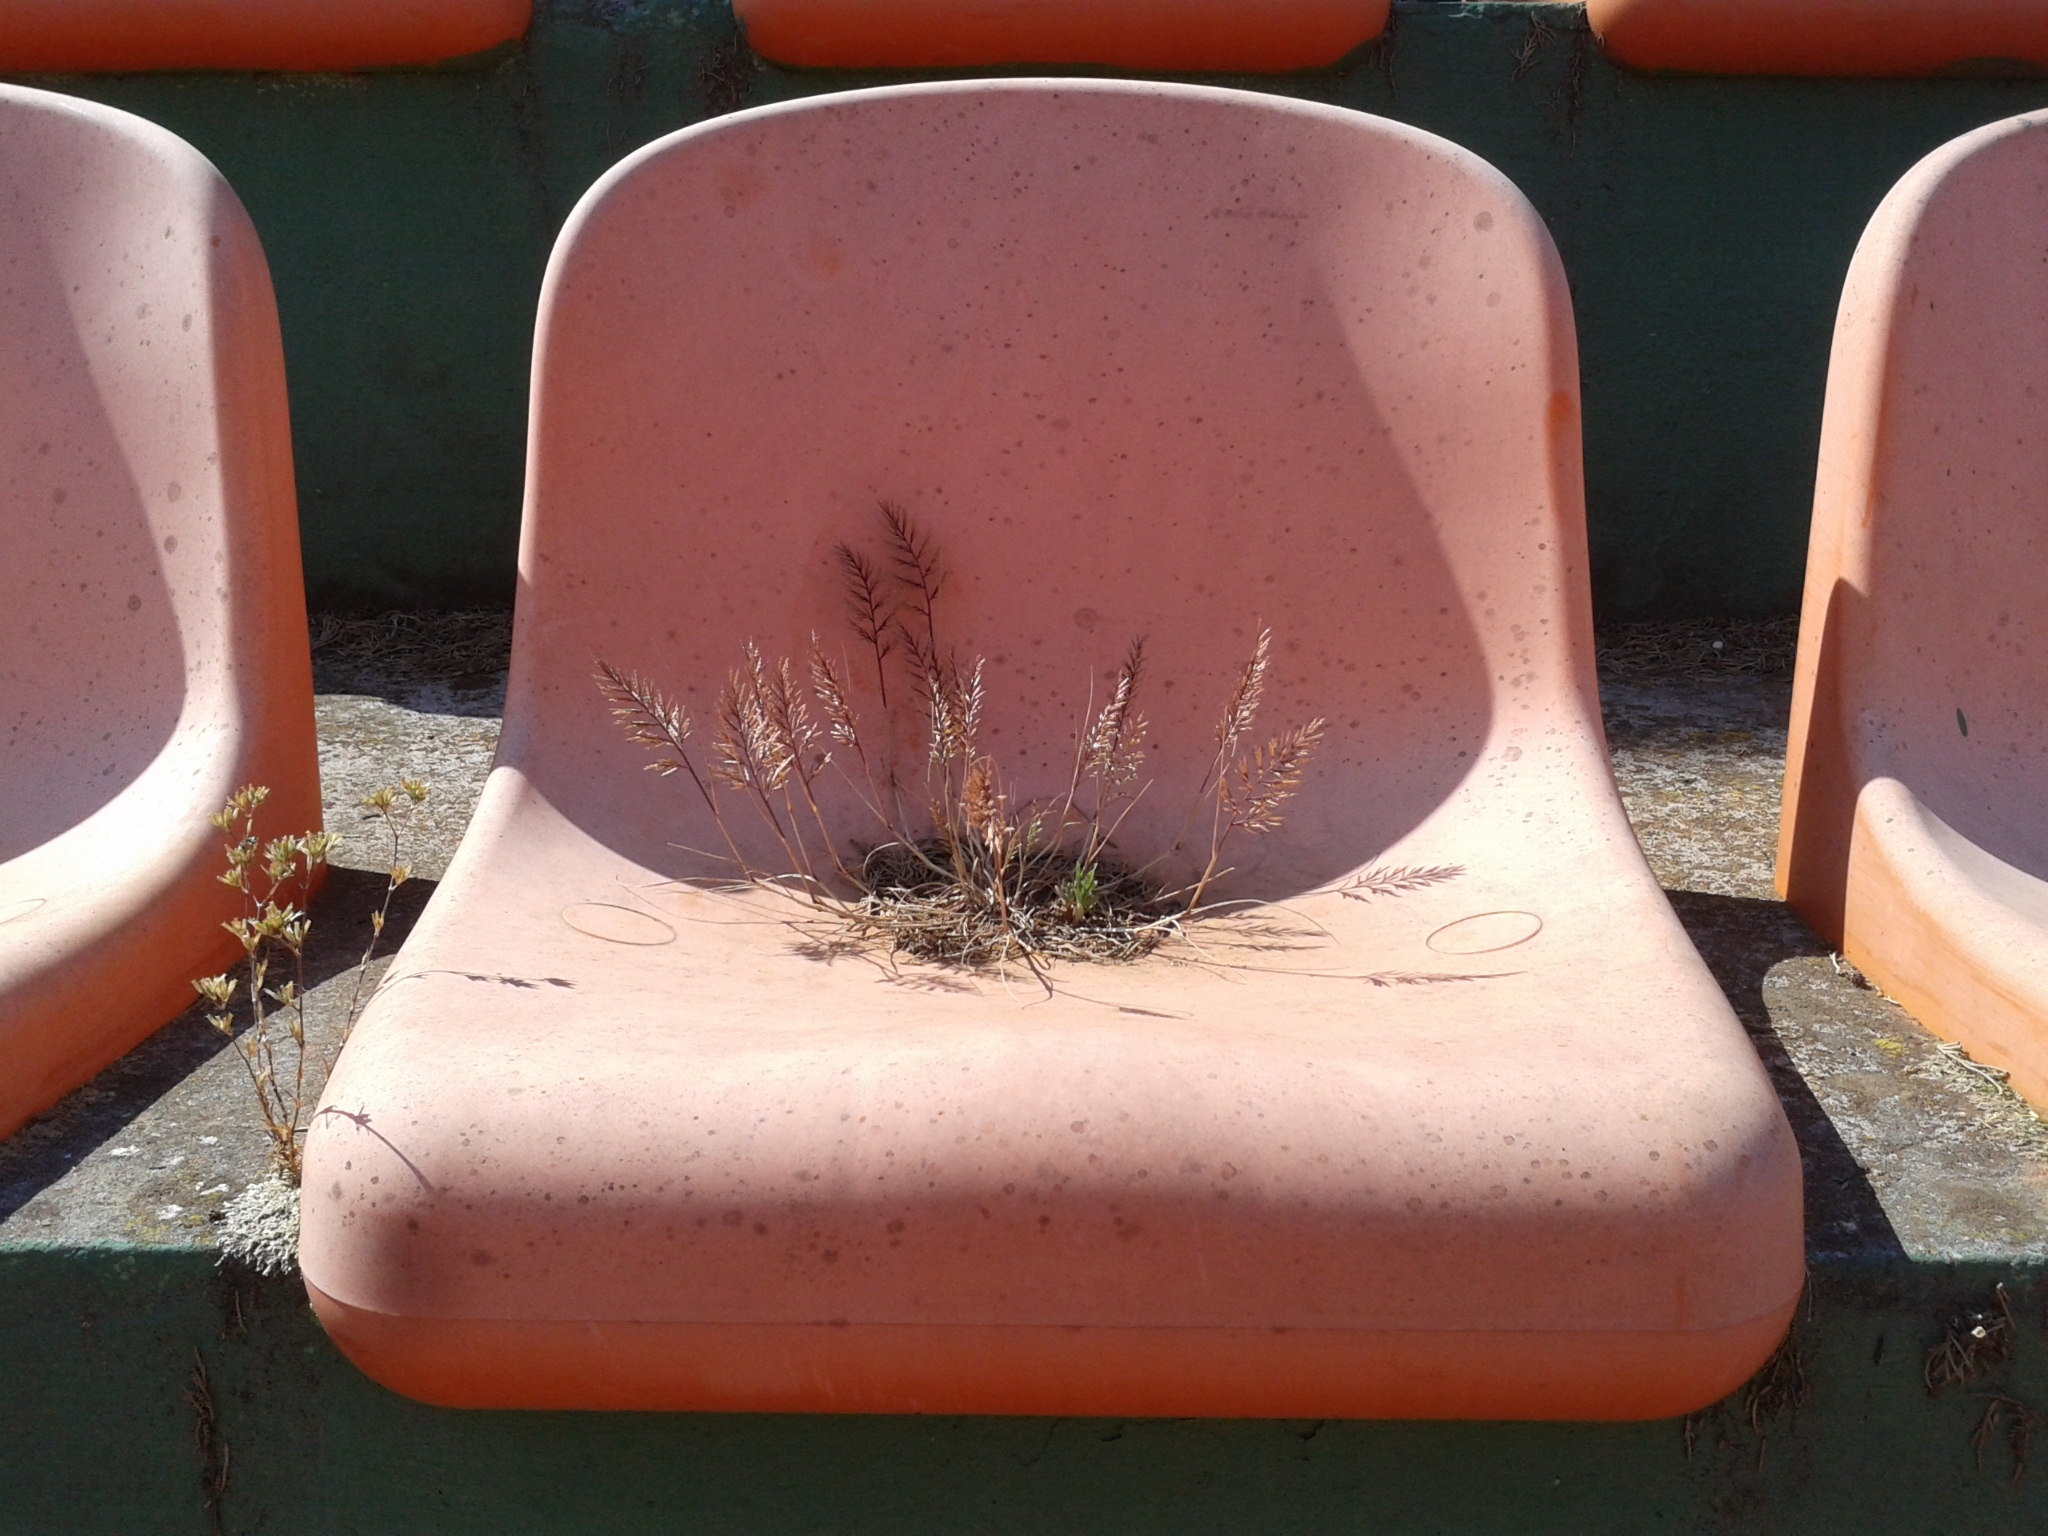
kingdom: Plantae
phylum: Tracheophyta
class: Liliopsida
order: Poales
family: Poaceae
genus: Catapodium
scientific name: Catapodium rigidum
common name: Fern-grass
